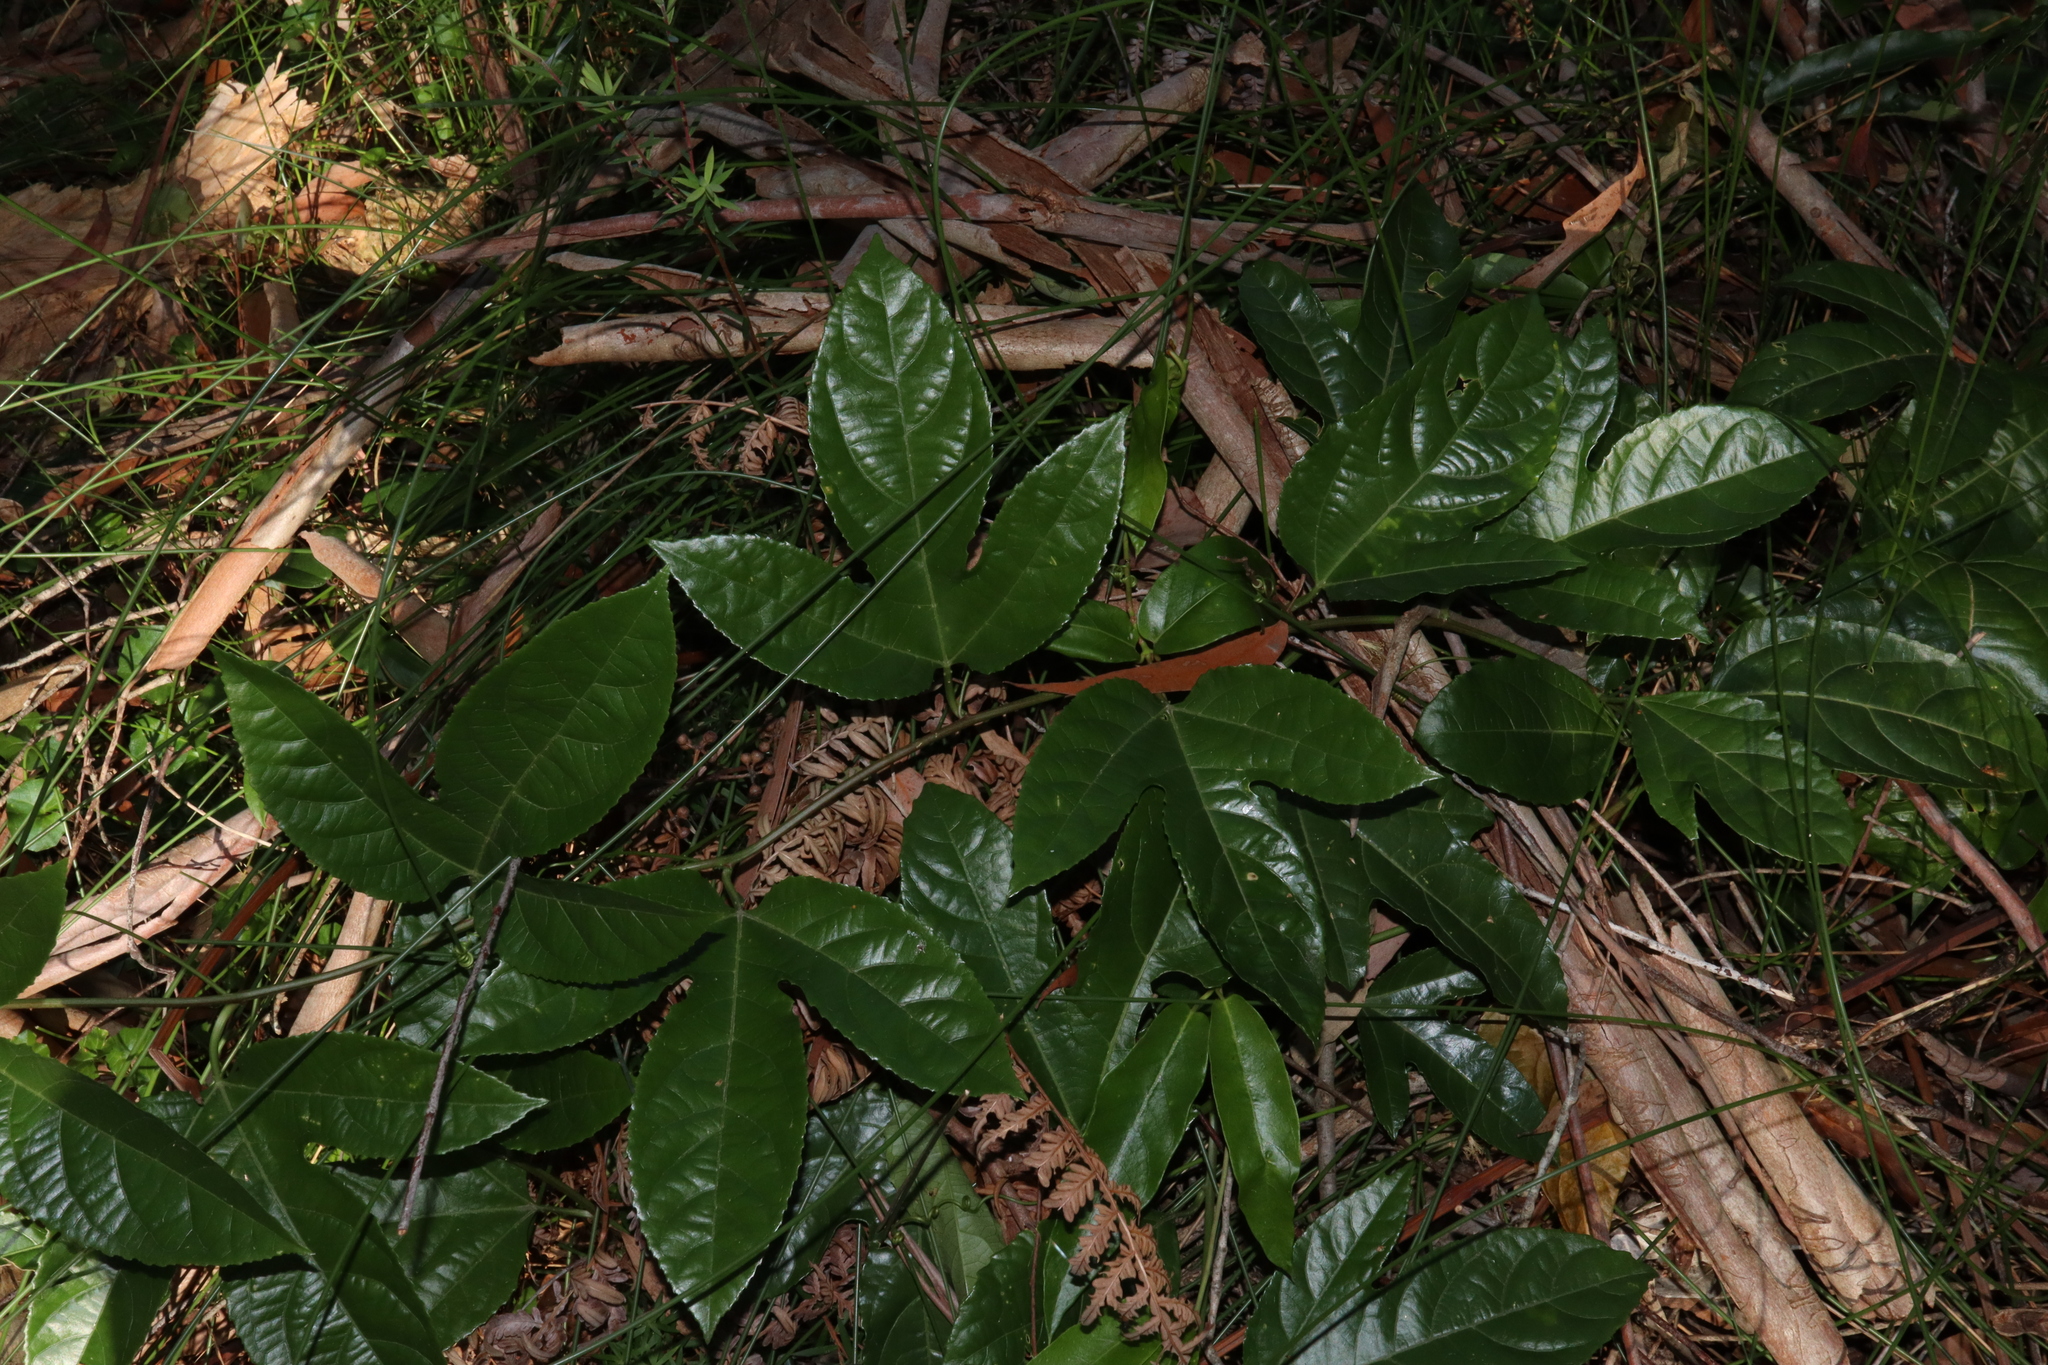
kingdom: Plantae
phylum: Tracheophyta
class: Magnoliopsida
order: Malpighiales
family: Passifloraceae
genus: Passiflora
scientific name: Passiflora edulis
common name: Purple granadilla
